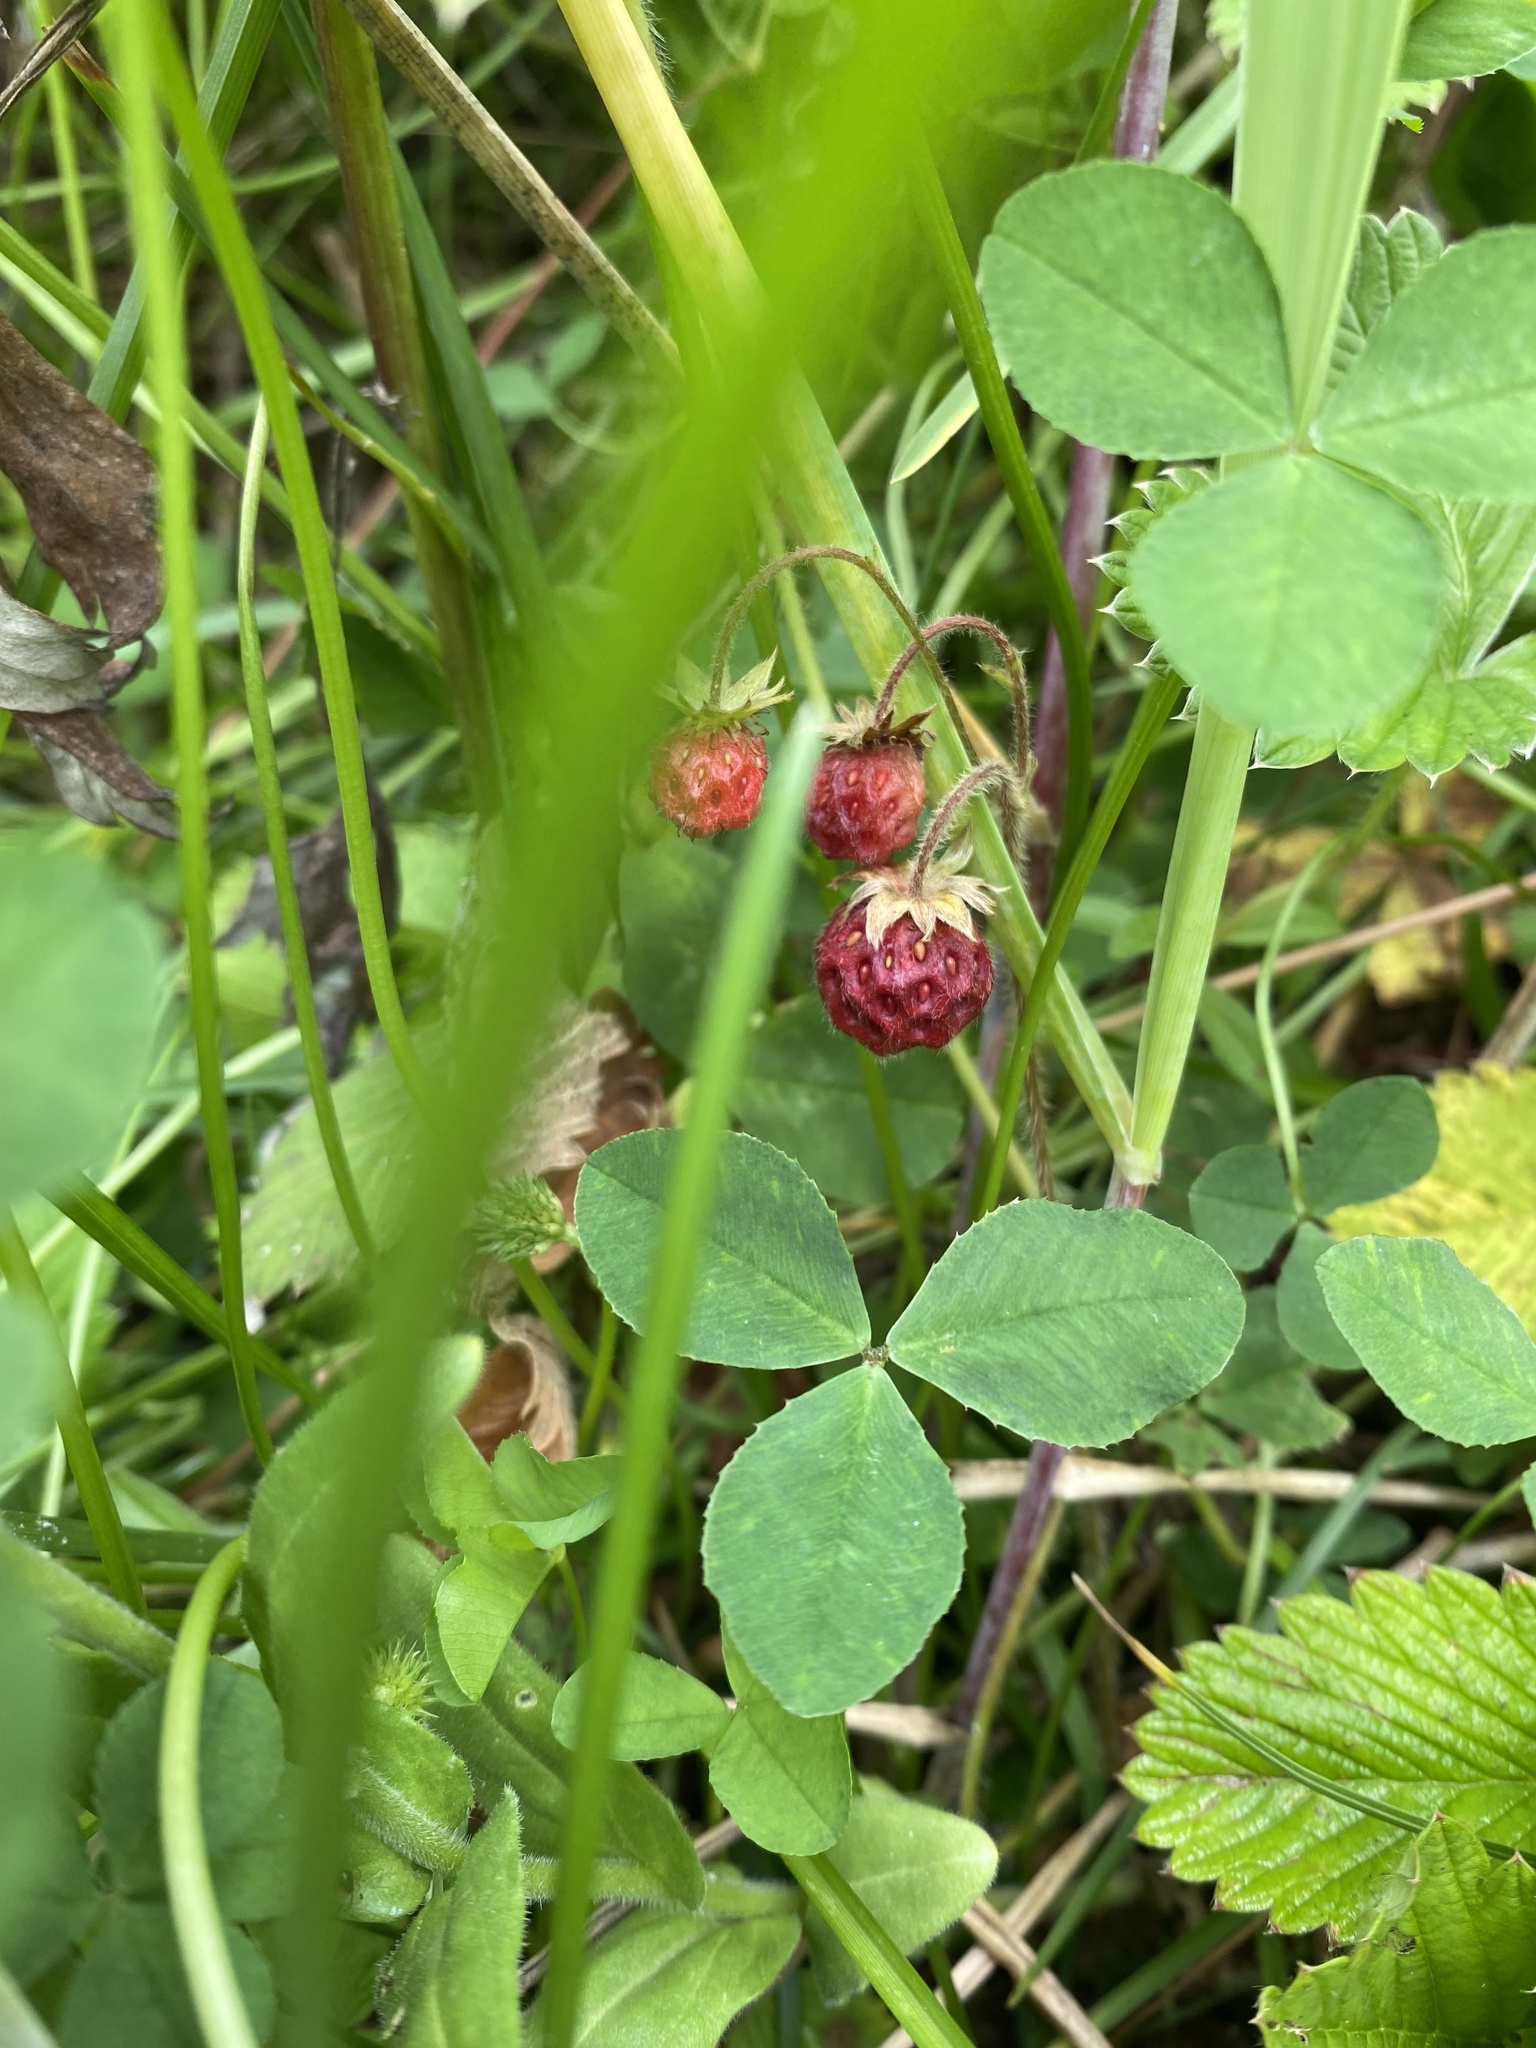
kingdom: Plantae
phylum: Tracheophyta
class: Magnoliopsida
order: Rosales
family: Rosaceae
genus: Fragaria
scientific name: Fragaria nipponica
